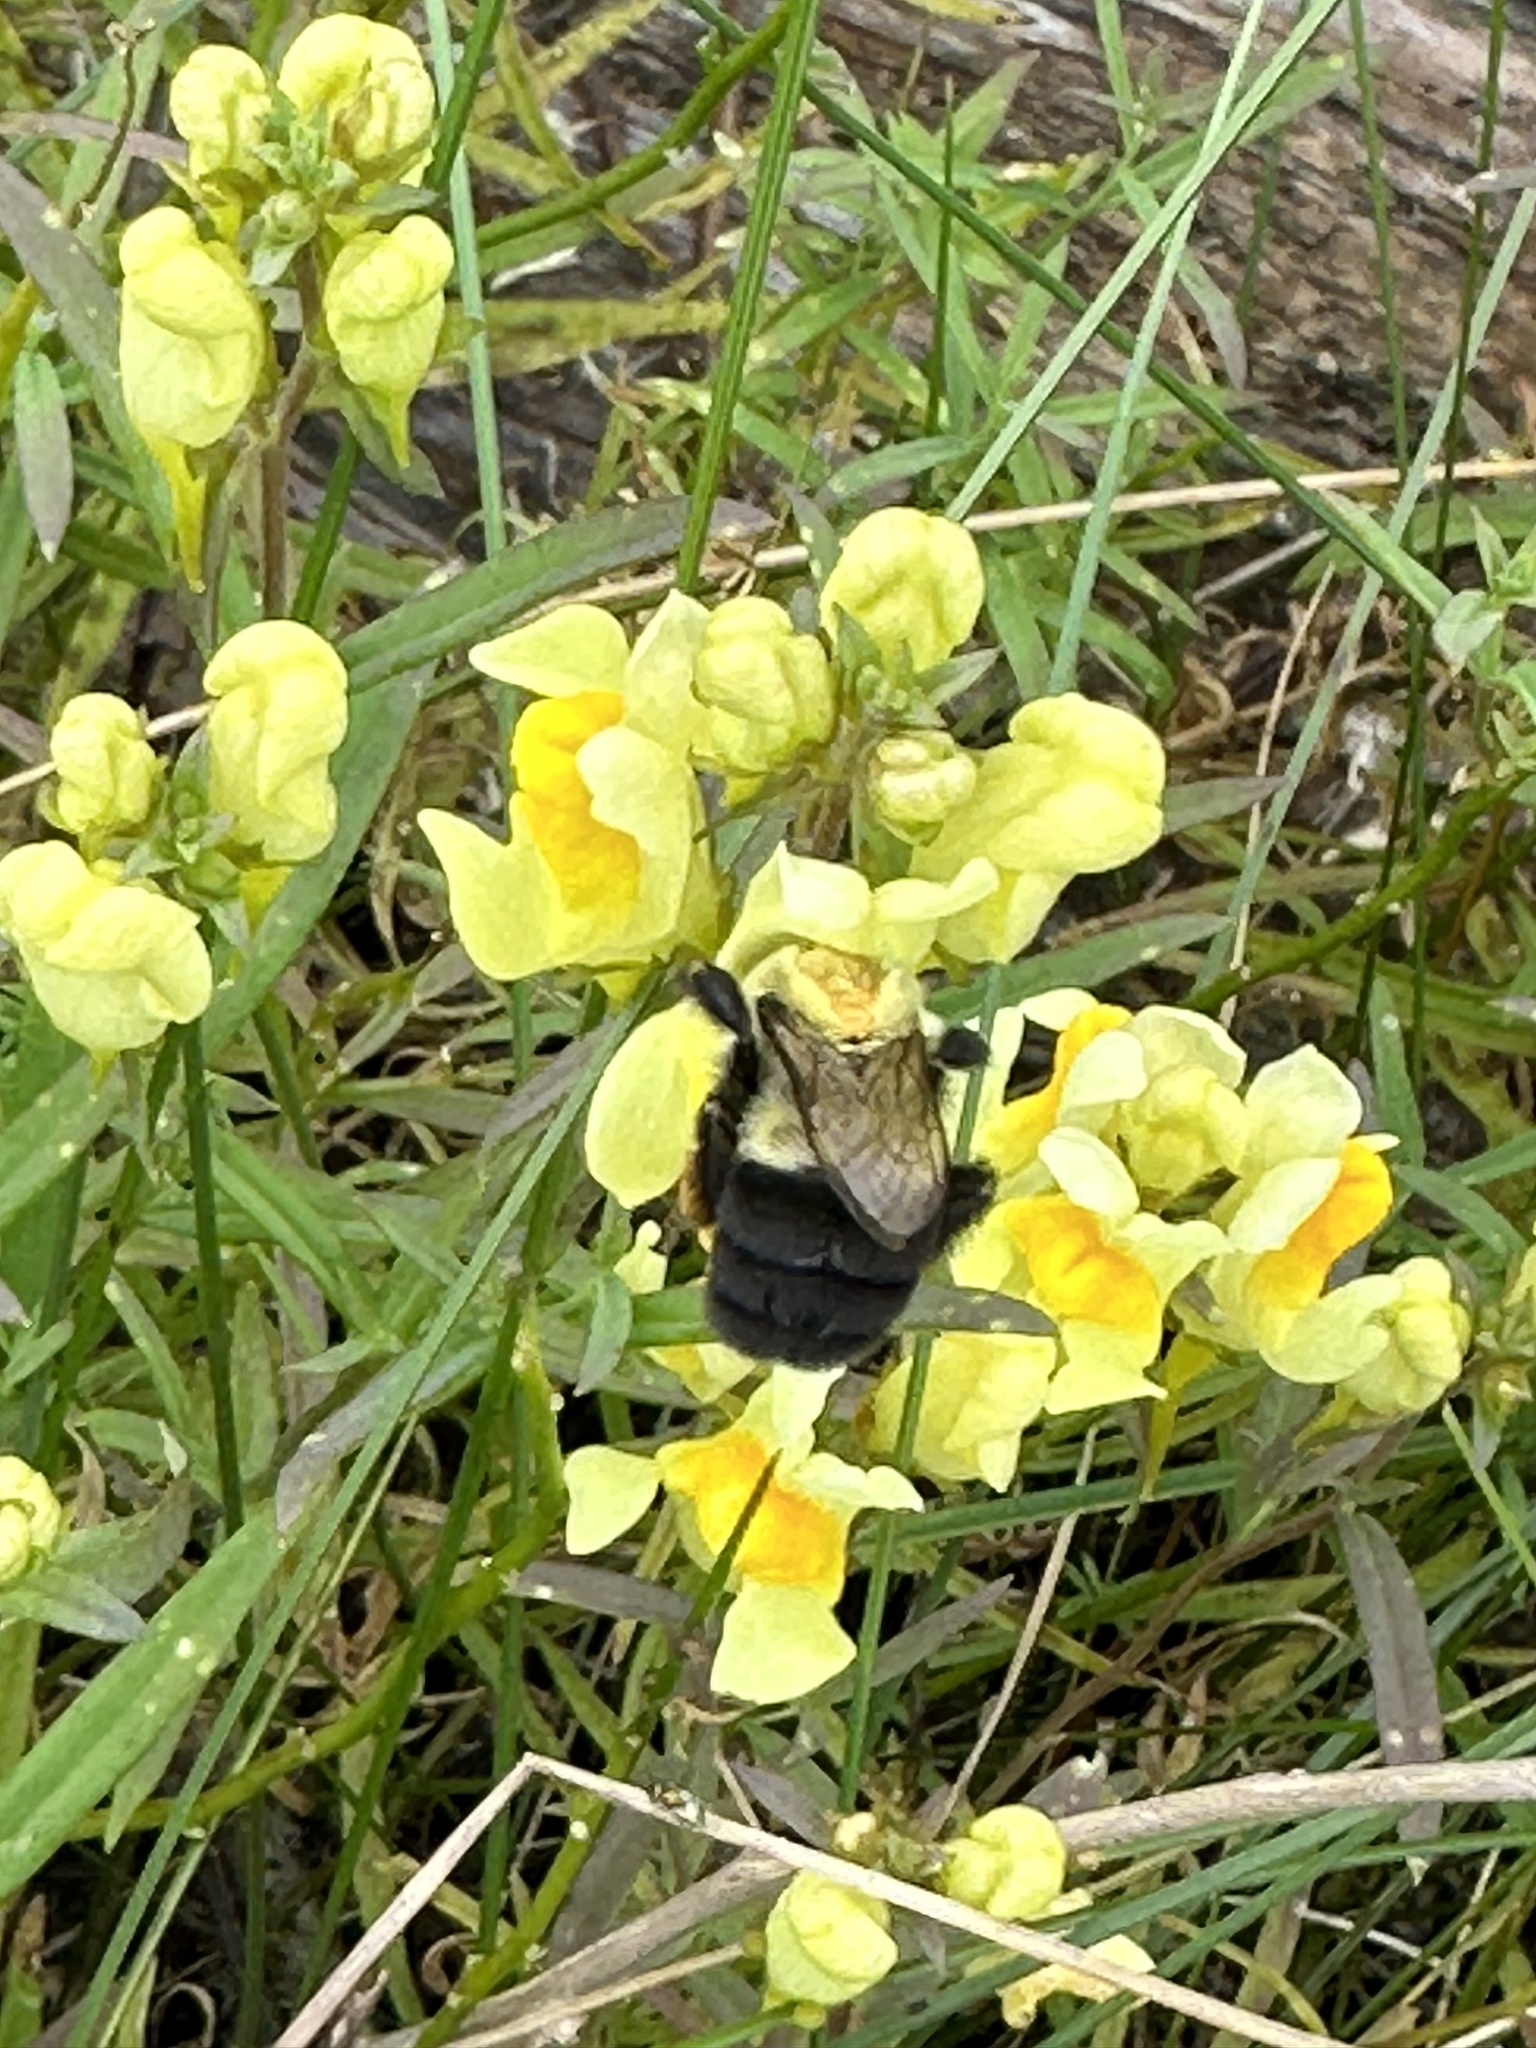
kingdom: Animalia
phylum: Arthropoda
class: Insecta
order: Hymenoptera
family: Apidae
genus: Bombus
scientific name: Bombus impatiens
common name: Common eastern bumble bee
